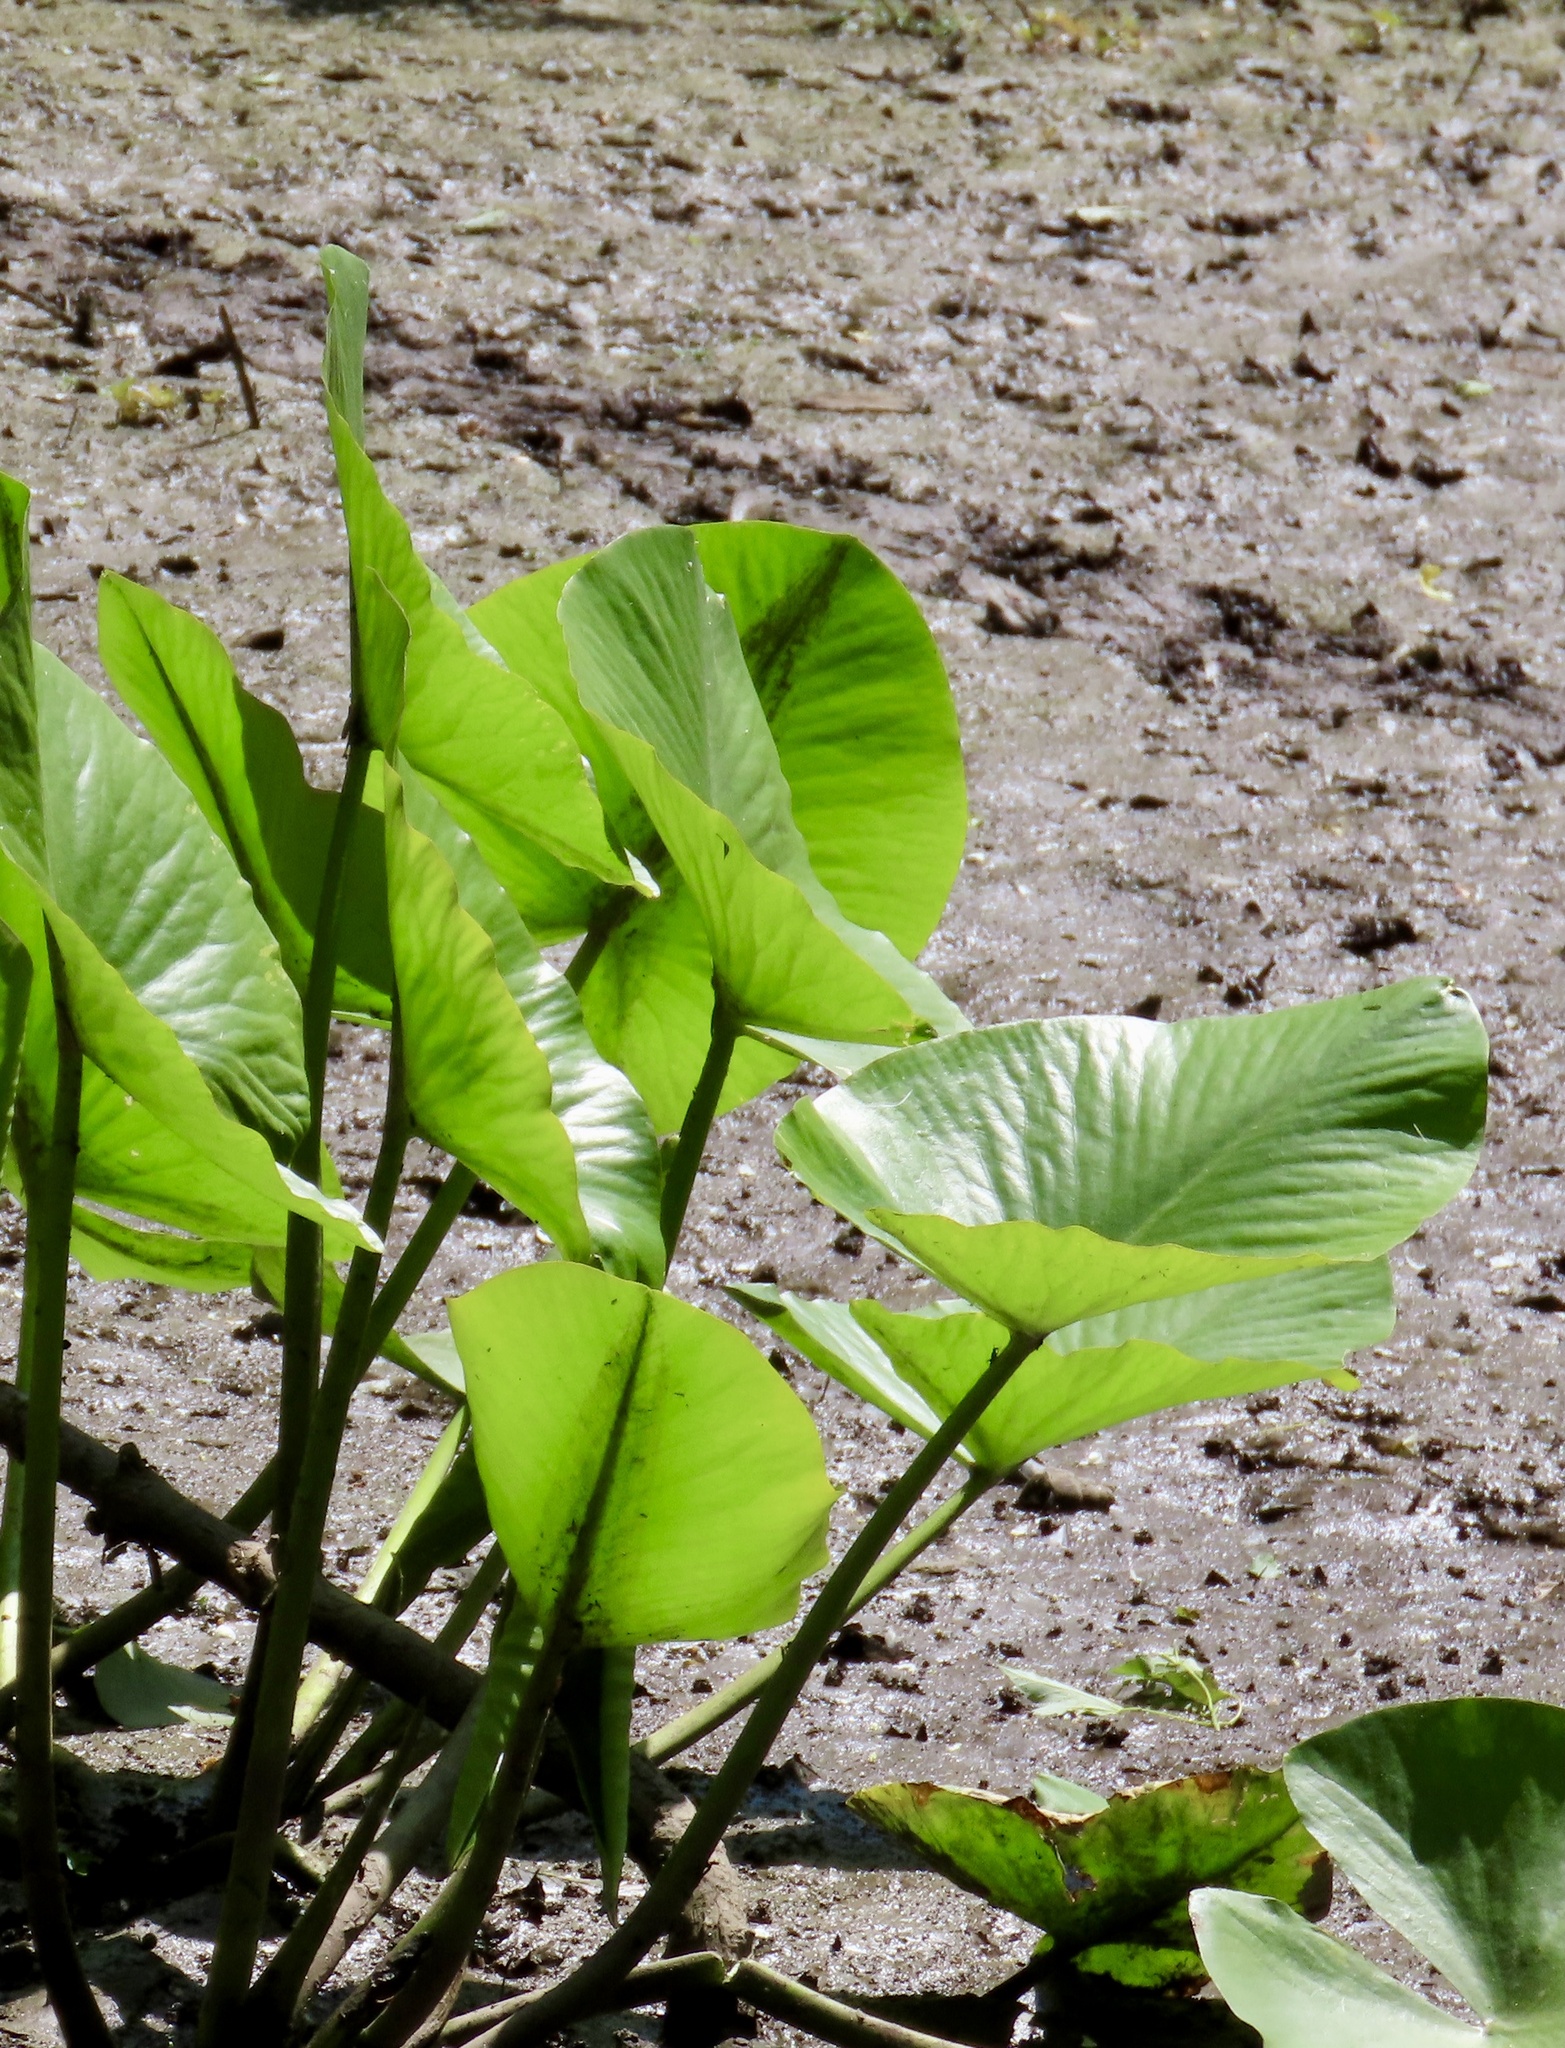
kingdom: Plantae
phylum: Tracheophyta
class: Magnoliopsida
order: Nymphaeales
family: Nymphaeaceae
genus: Nuphar
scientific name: Nuphar advena
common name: Spatter-dock
